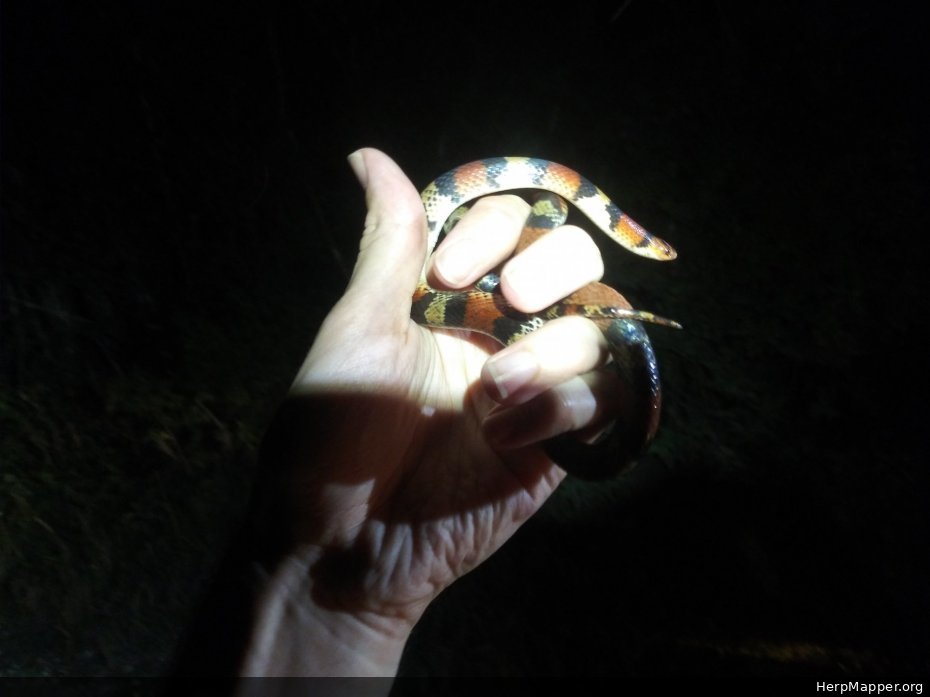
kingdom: Animalia
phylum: Chordata
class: Squamata
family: Colubridae
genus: Cemophora
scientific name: Cemophora coccinea
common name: Scarlet snake
